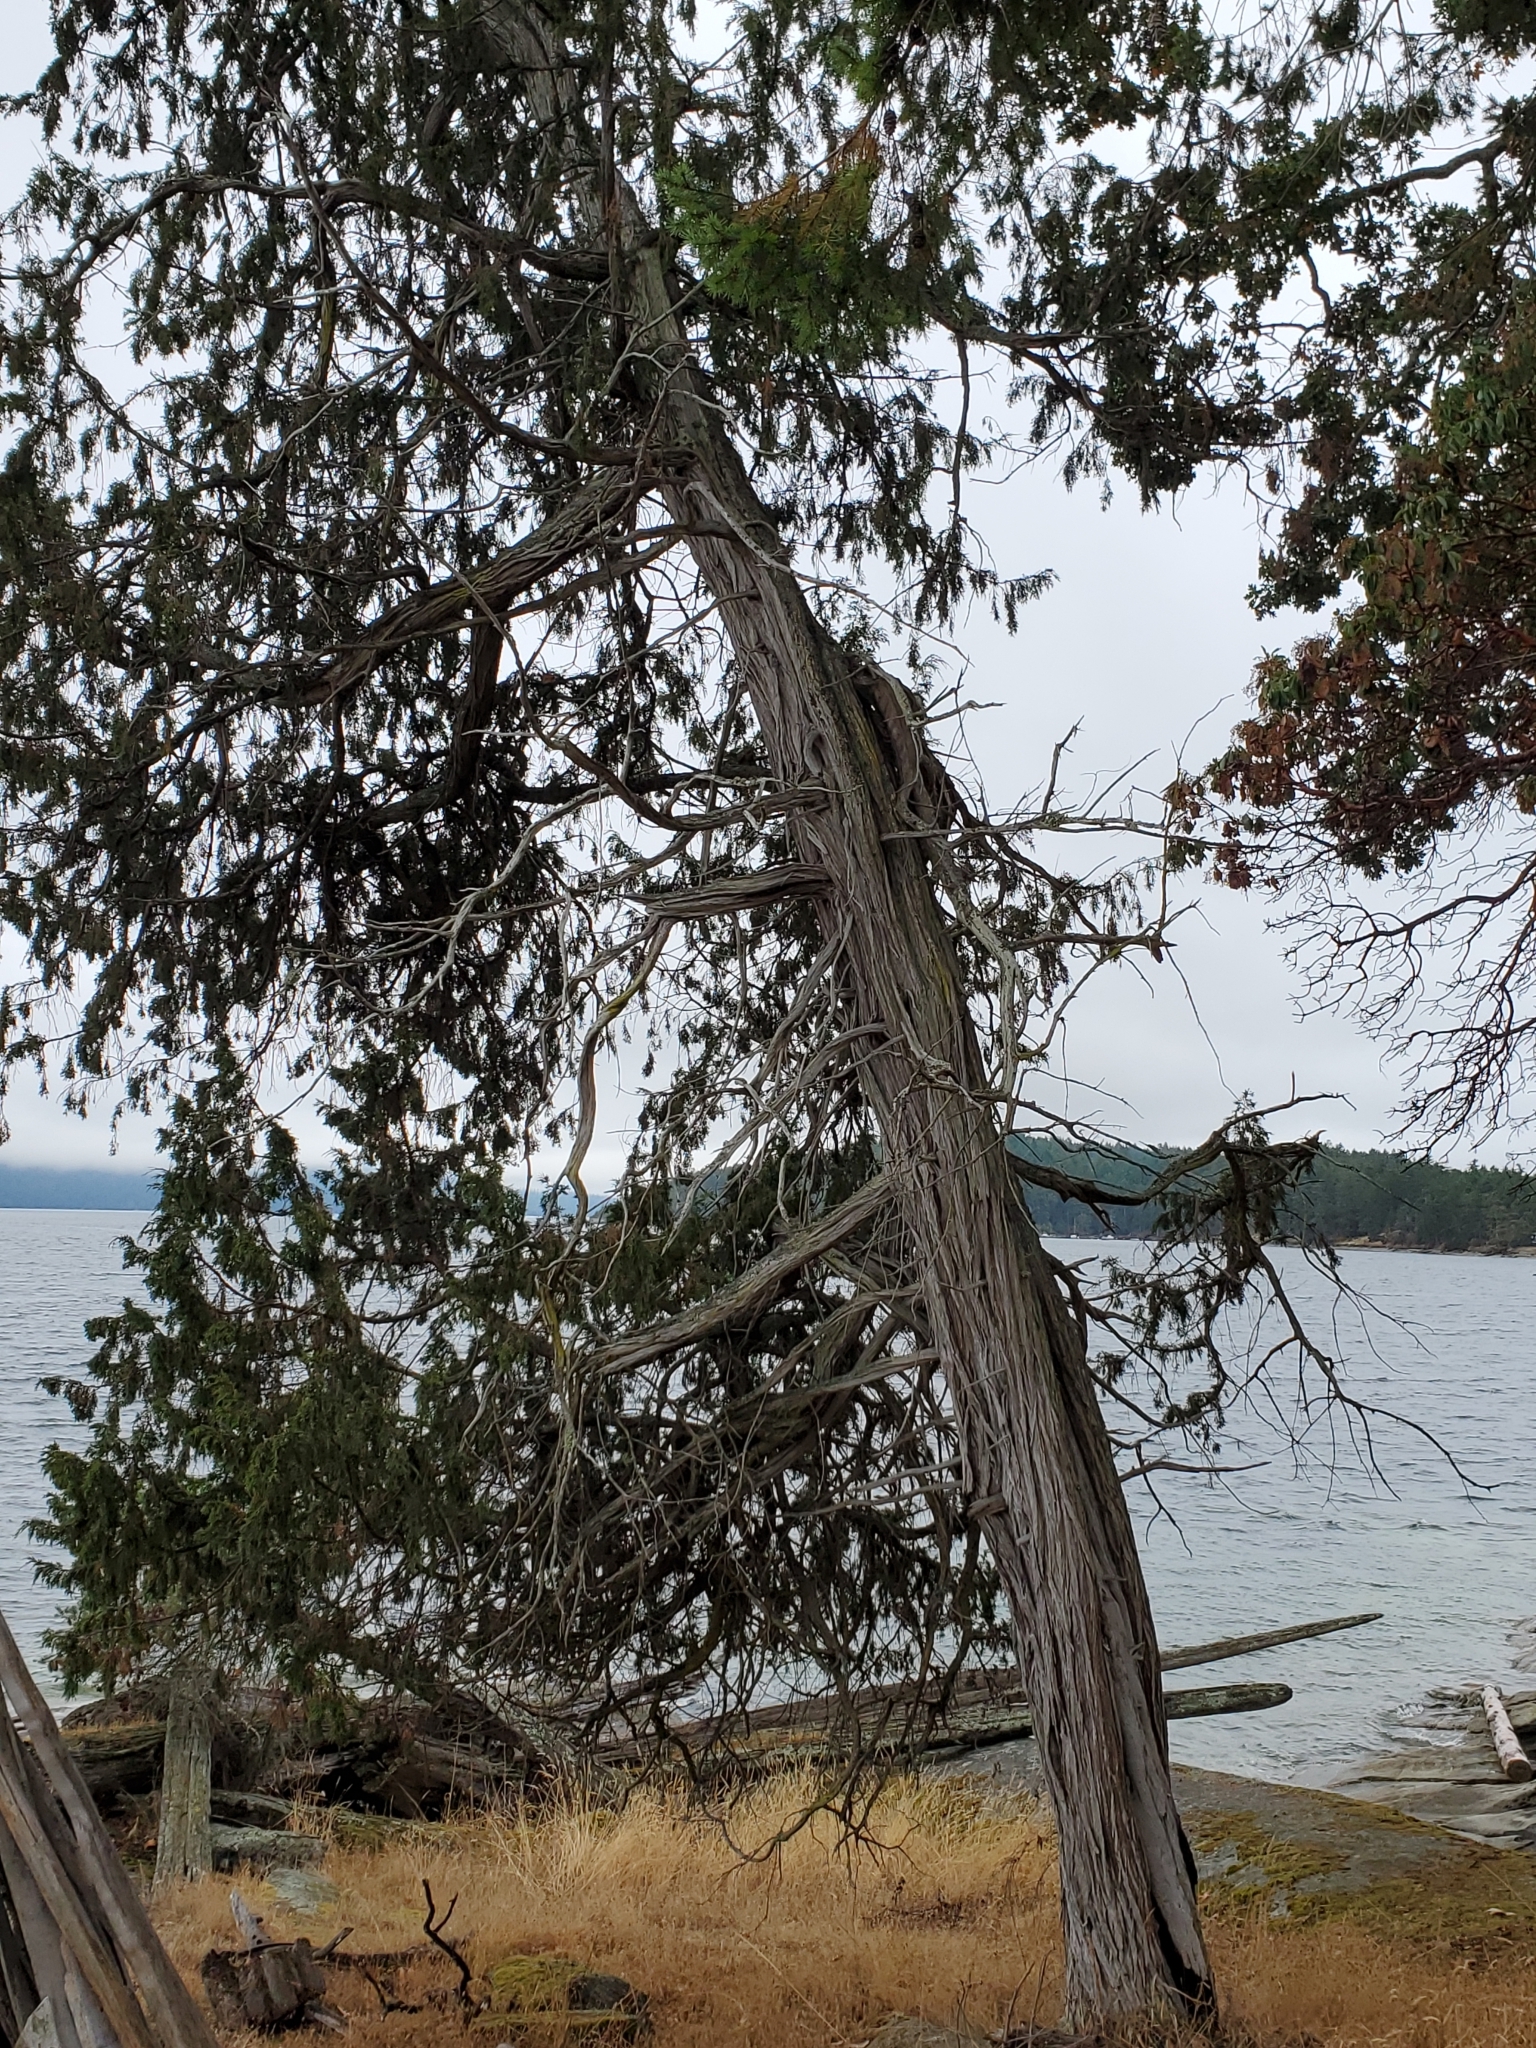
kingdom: Plantae
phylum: Tracheophyta
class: Pinopsida
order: Pinales
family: Cupressaceae
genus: Juniperus
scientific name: Juniperus scopulorum
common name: Rocky mountain juniper
